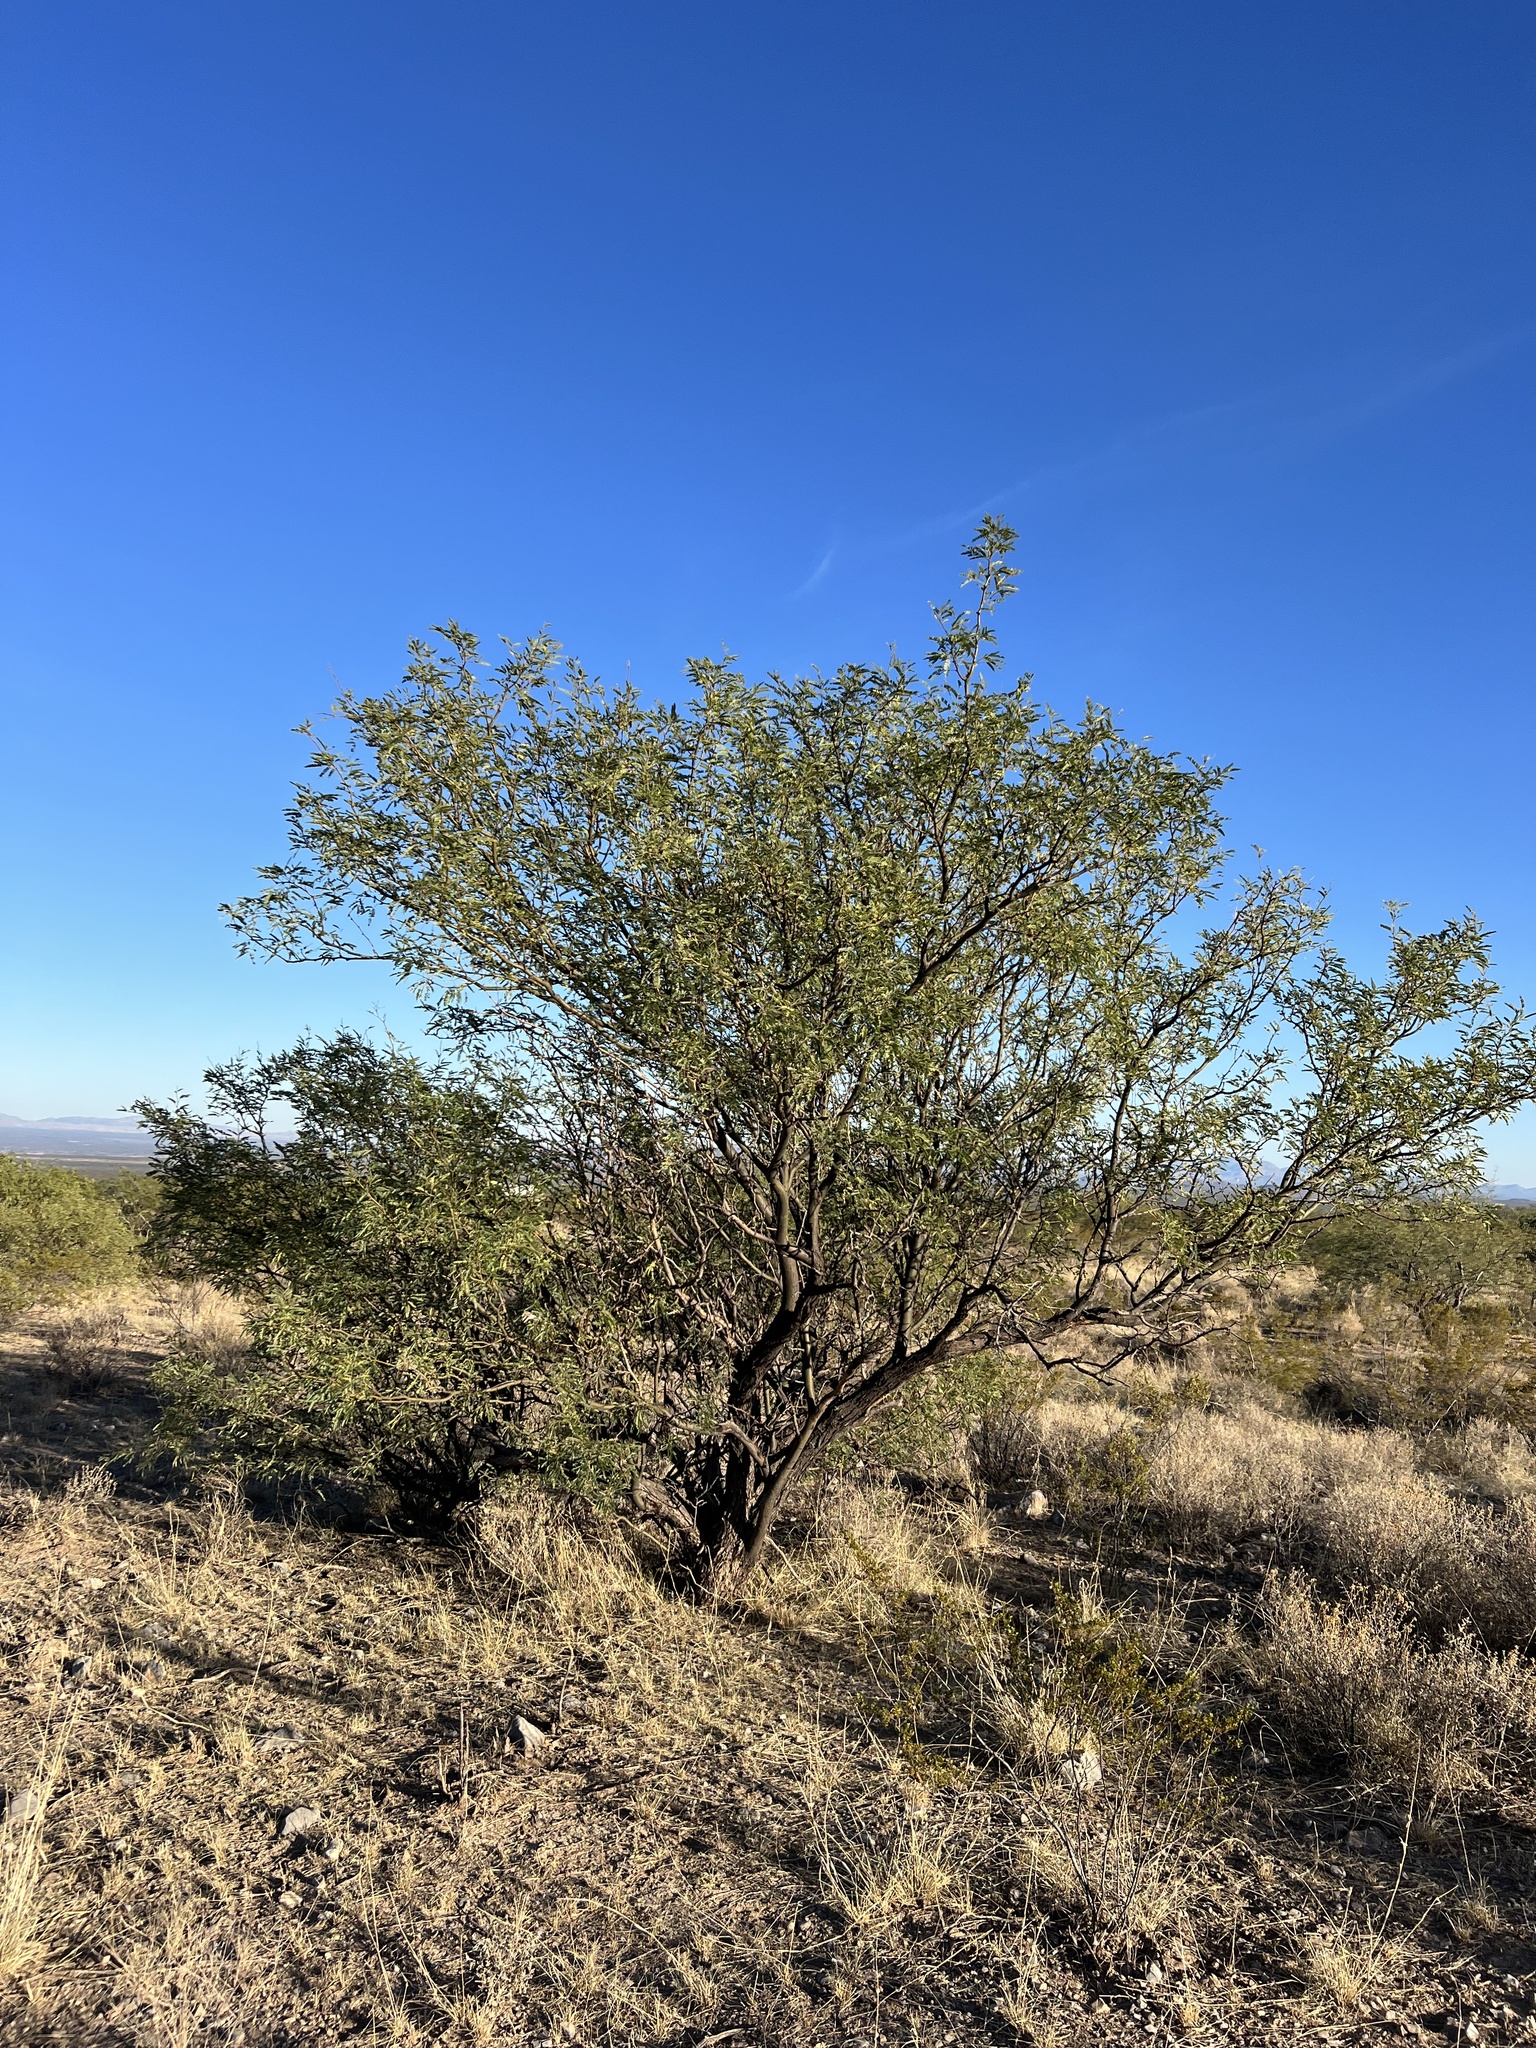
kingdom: Plantae
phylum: Tracheophyta
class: Magnoliopsida
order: Fabales
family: Fabaceae
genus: Prosopis
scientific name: Prosopis velutina
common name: Velvet mesquite
